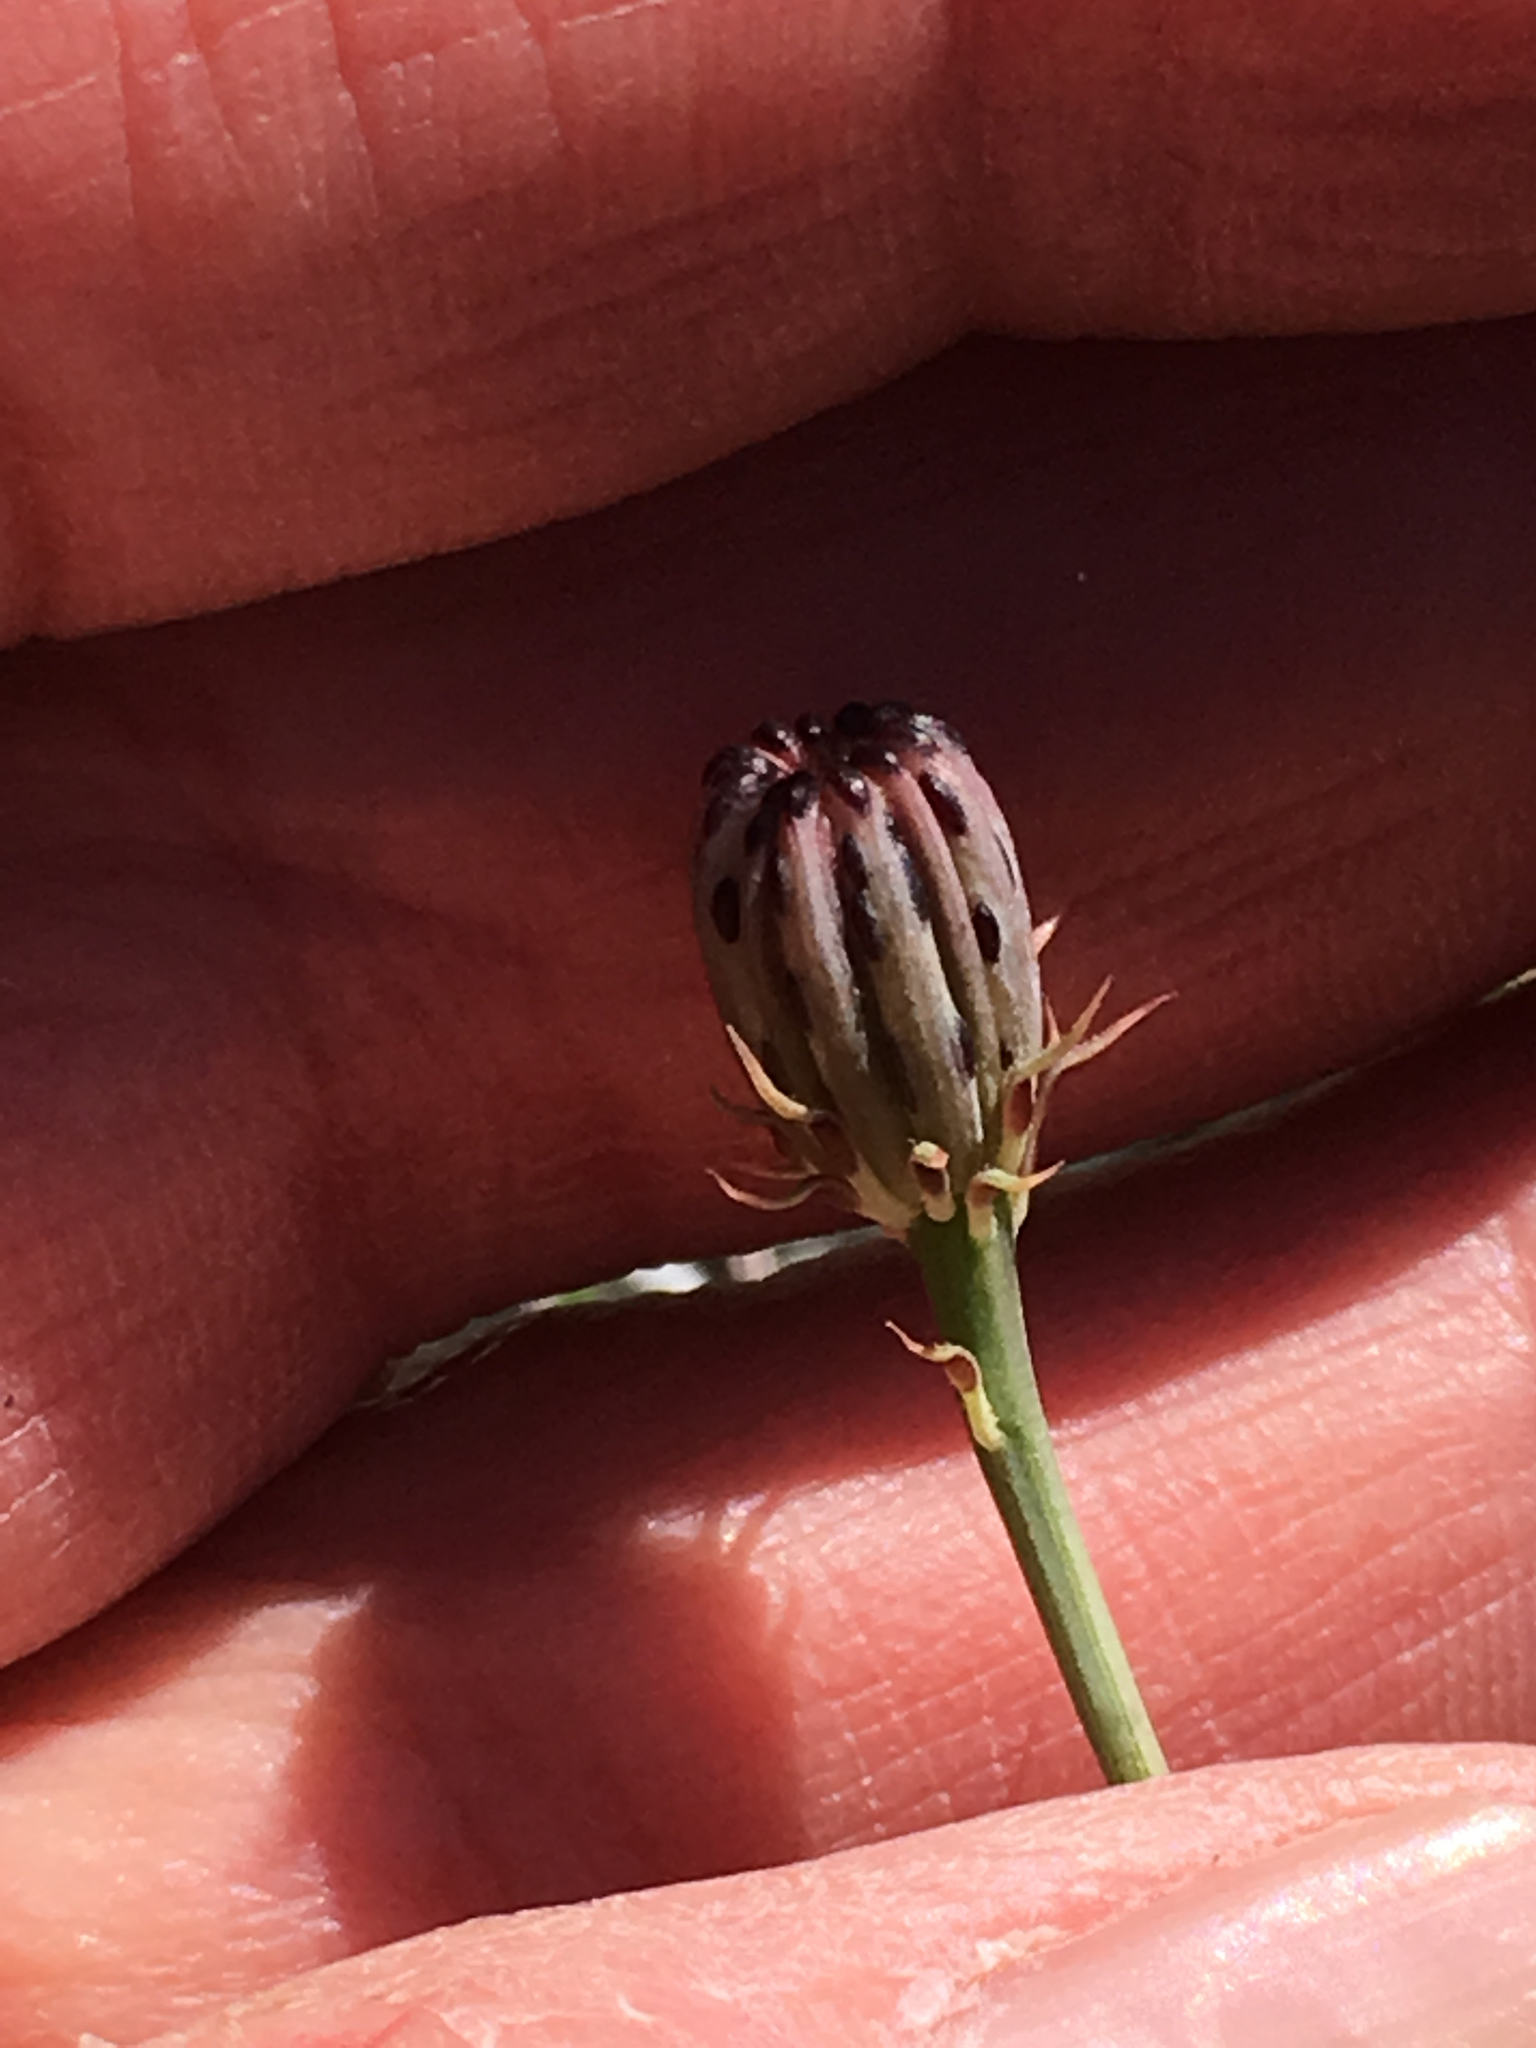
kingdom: Plantae
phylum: Tracheophyta
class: Magnoliopsida
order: Asterales
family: Asteraceae
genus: Adenophyllum
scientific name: Adenophyllum porophylloides
